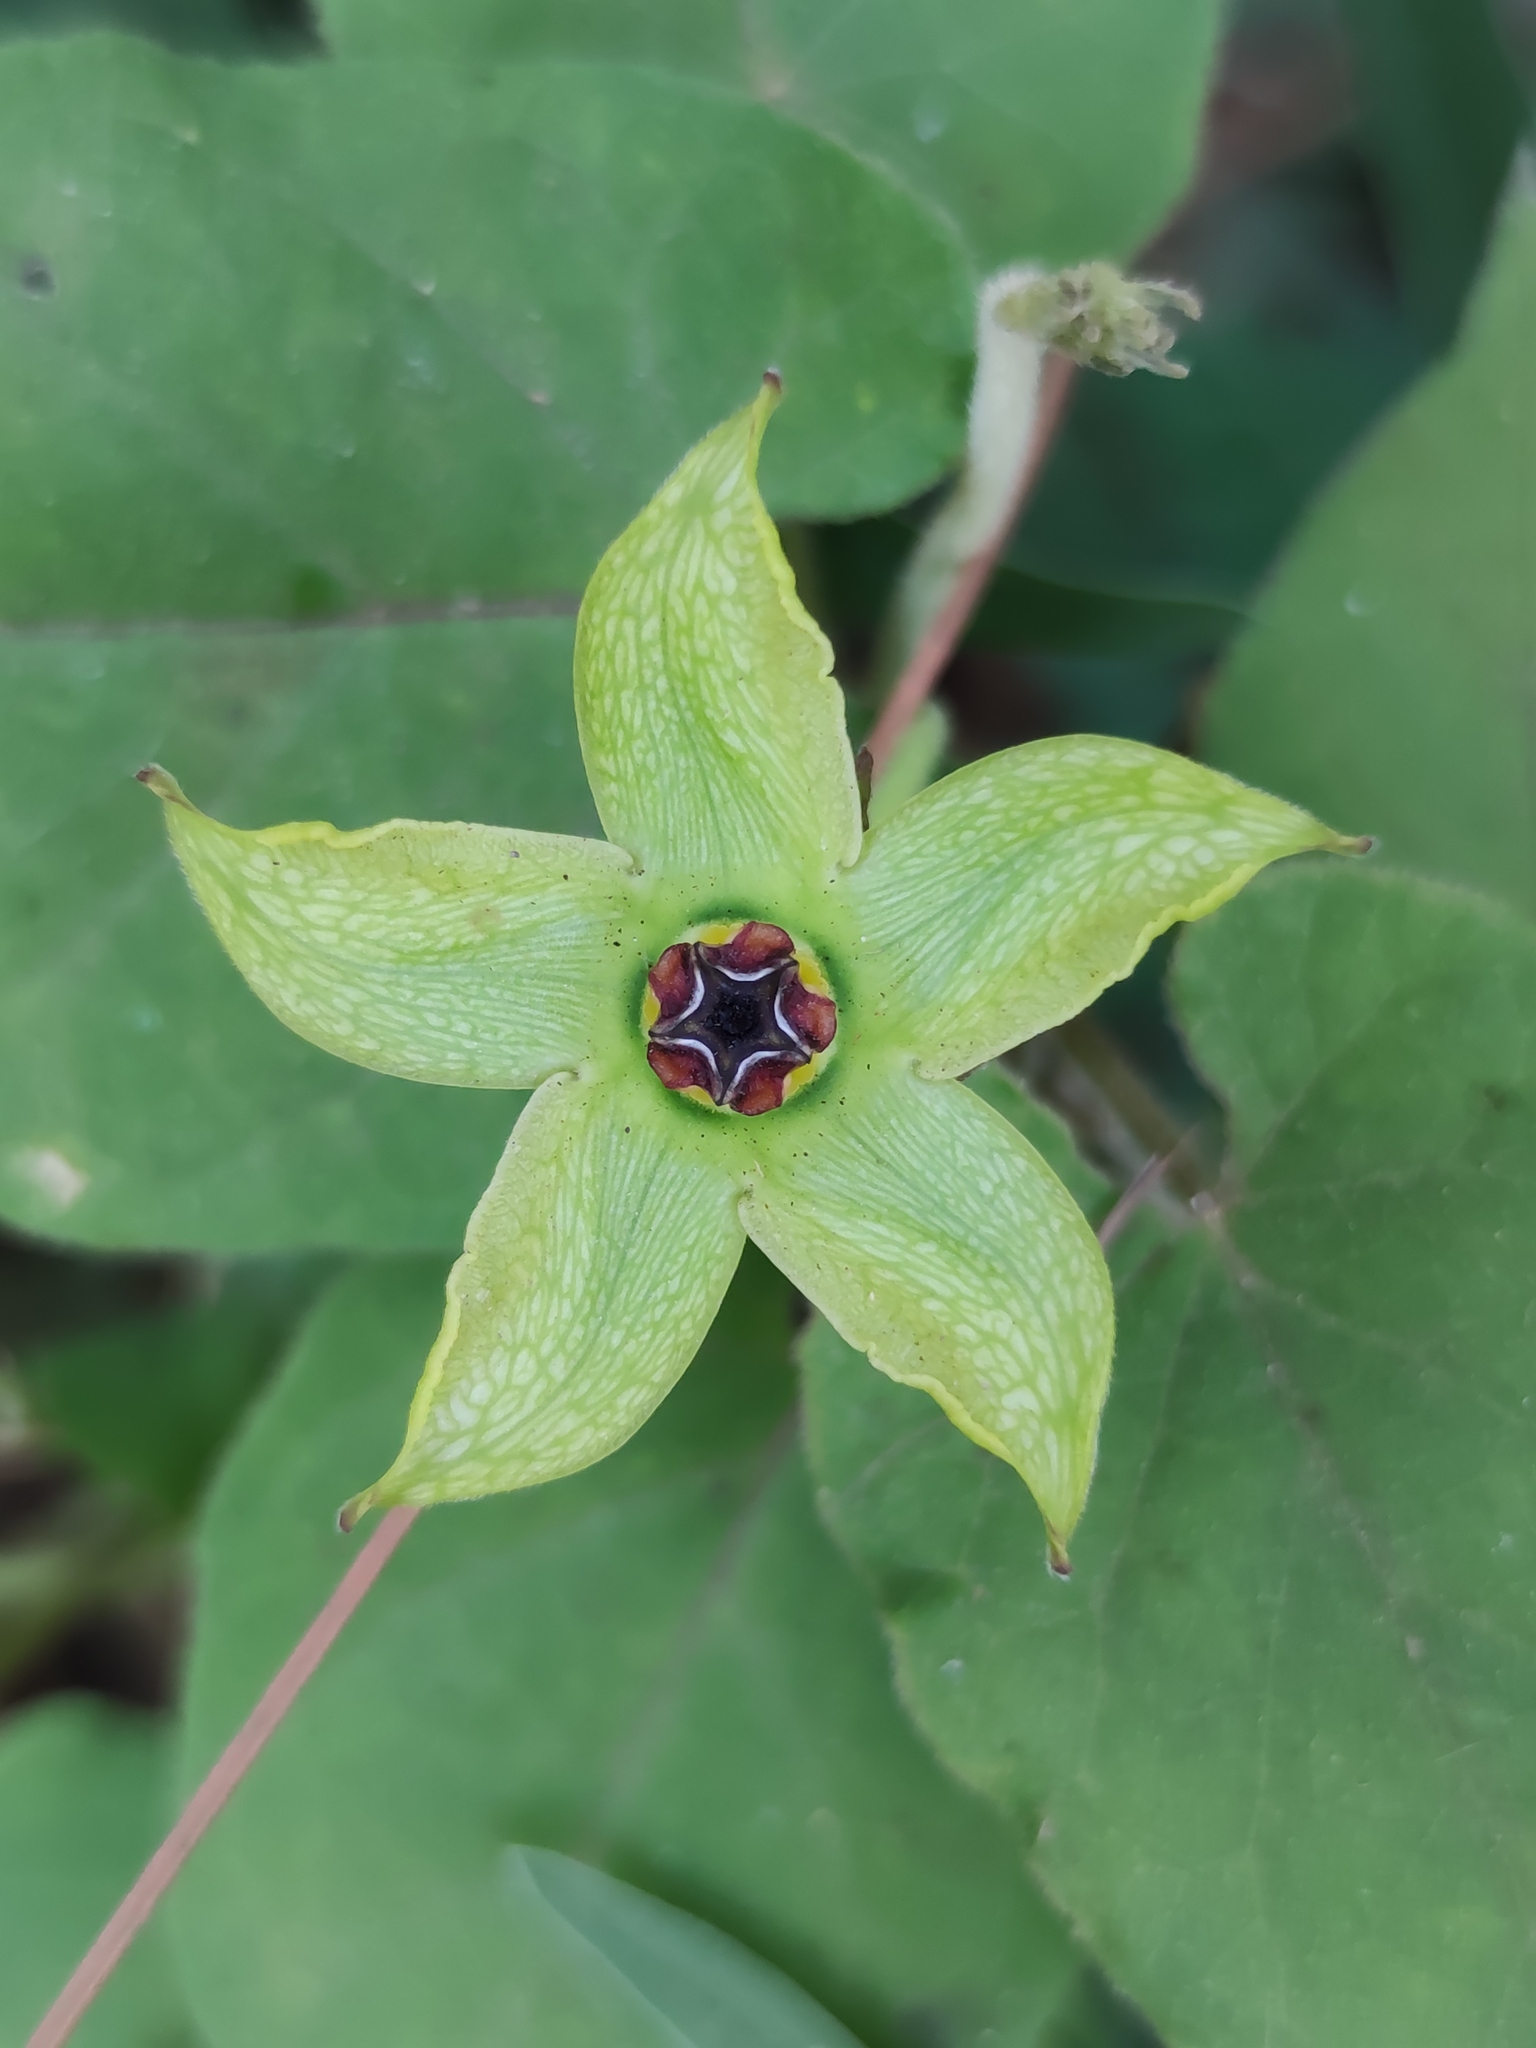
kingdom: Plantae
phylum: Tracheophyta
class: Magnoliopsida
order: Gentianales
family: Apocynaceae
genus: Gonolobus
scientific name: Gonolobus erianthus
